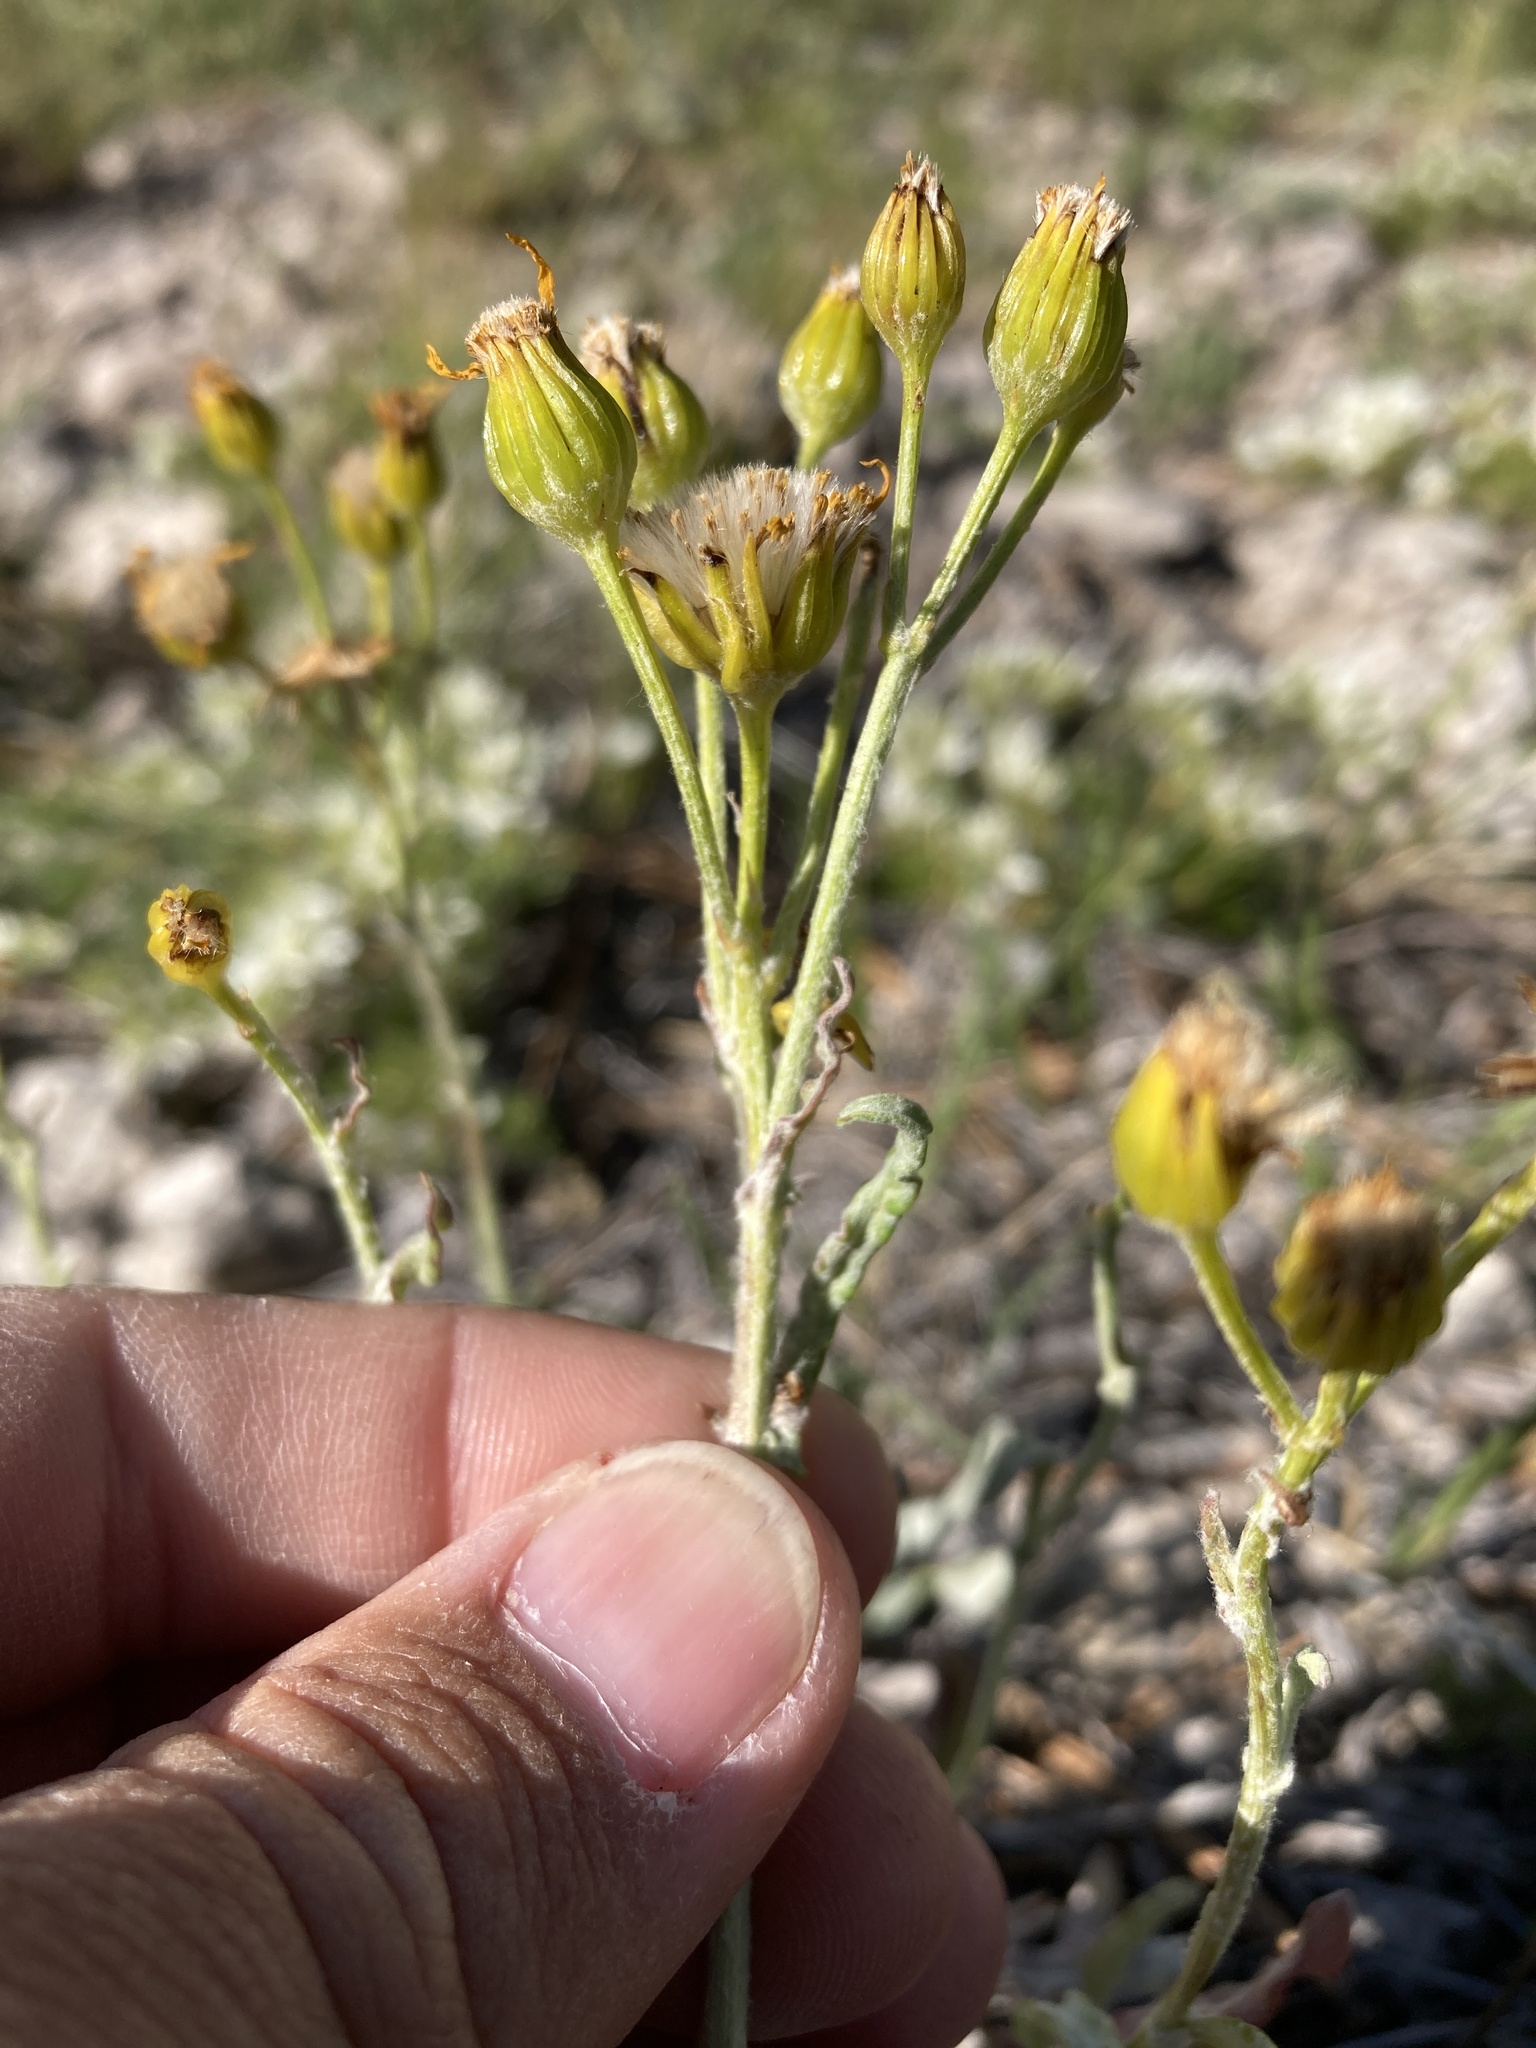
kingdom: Plantae
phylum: Tracheophyta
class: Magnoliopsida
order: Asterales
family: Asteraceae
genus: Packera
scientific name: Packera cana
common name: Woolly groundsel
